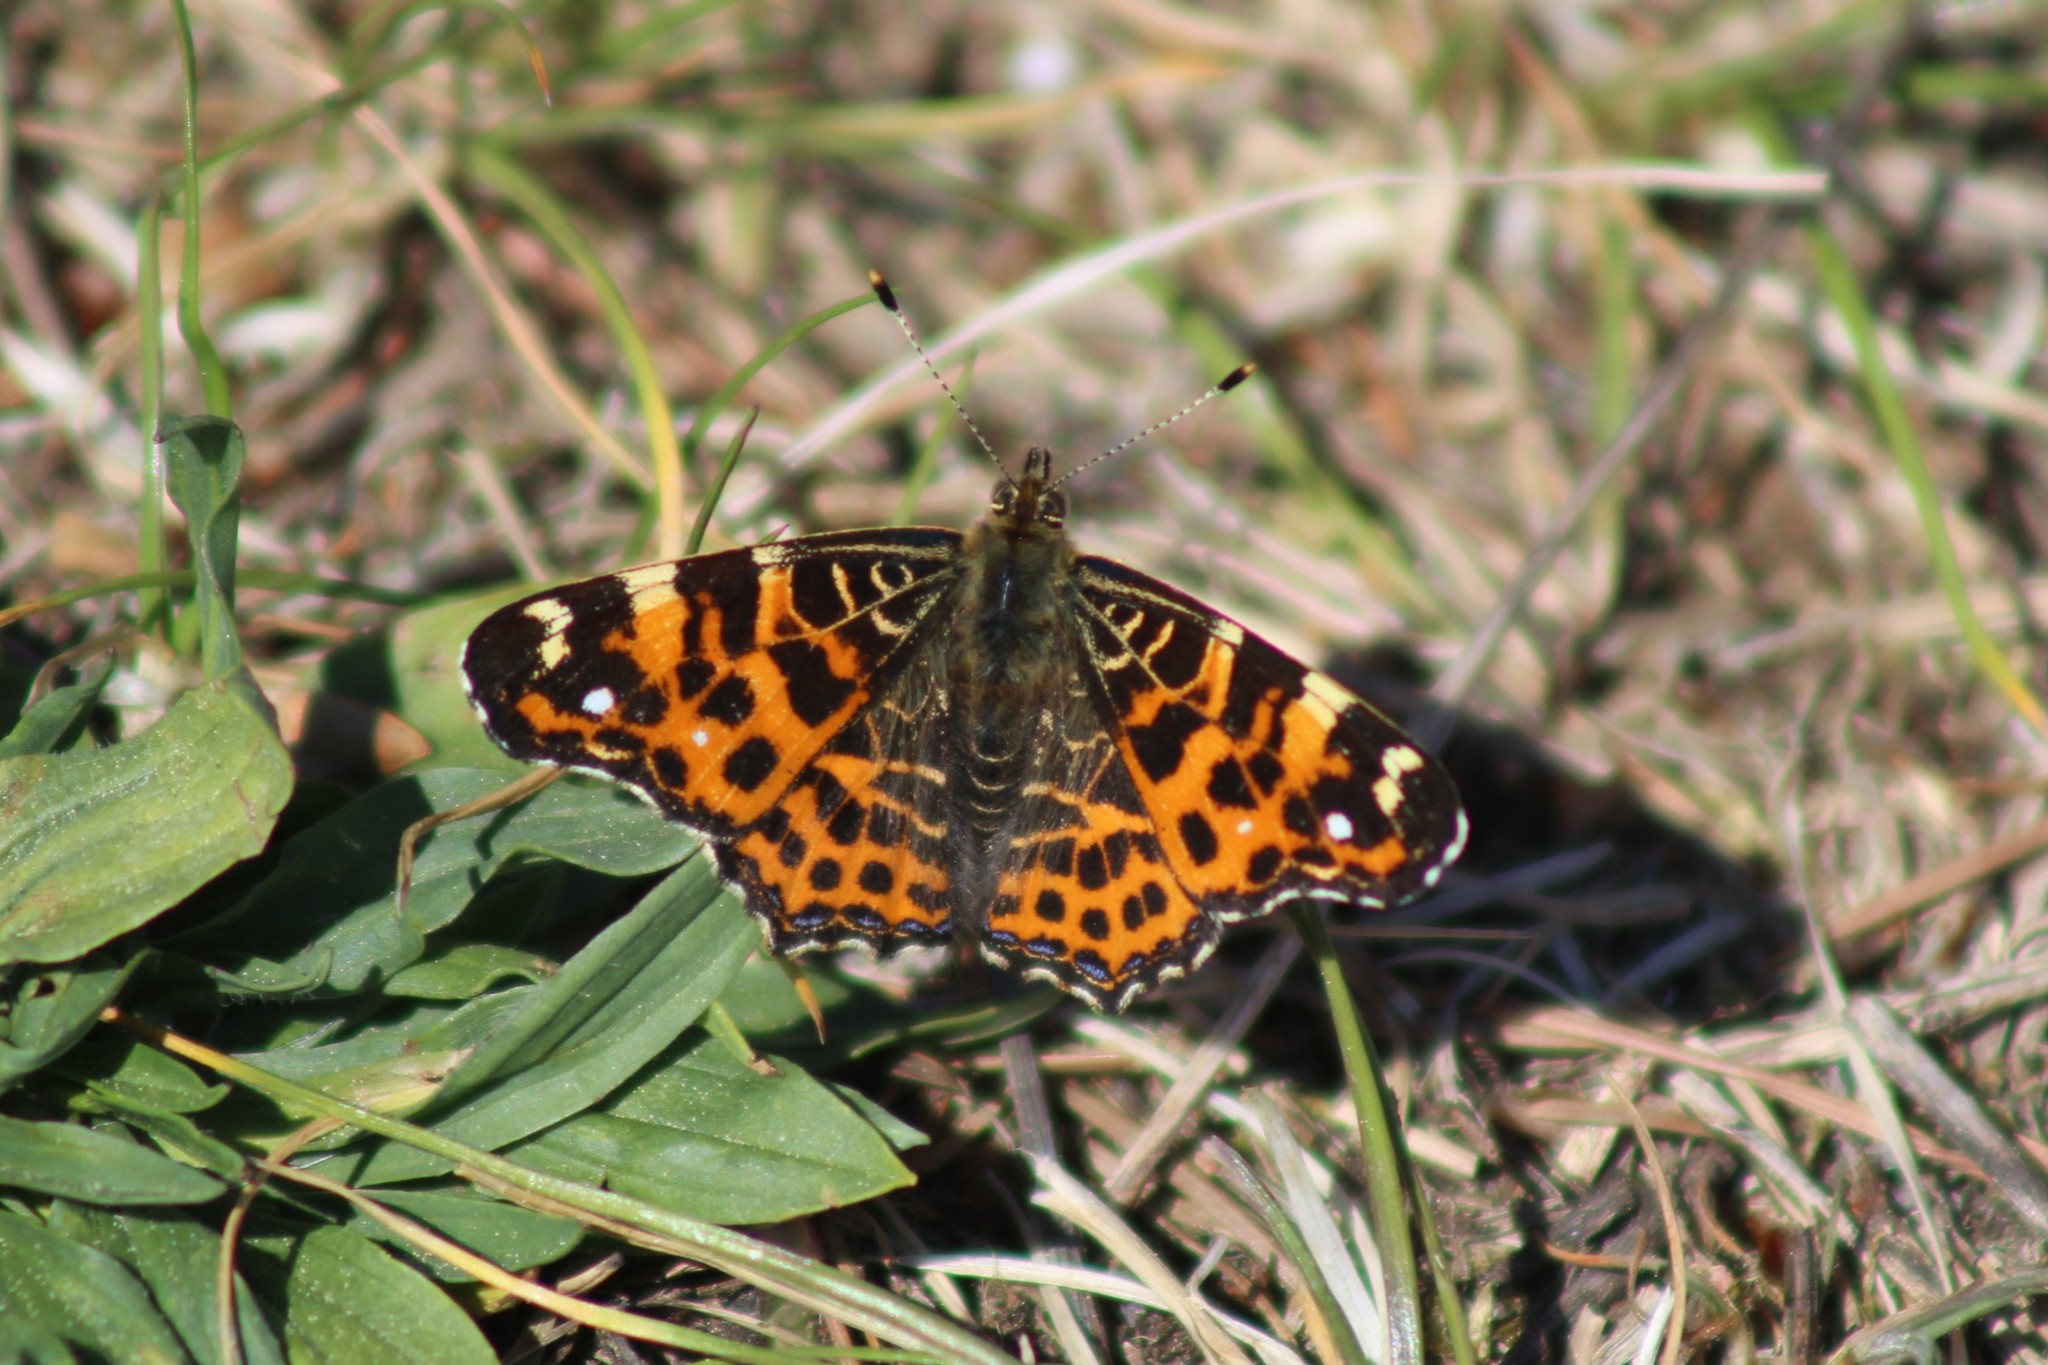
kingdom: Animalia
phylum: Arthropoda
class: Insecta
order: Lepidoptera
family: Nymphalidae
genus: Araschnia
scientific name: Araschnia levana
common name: Map butterfly
